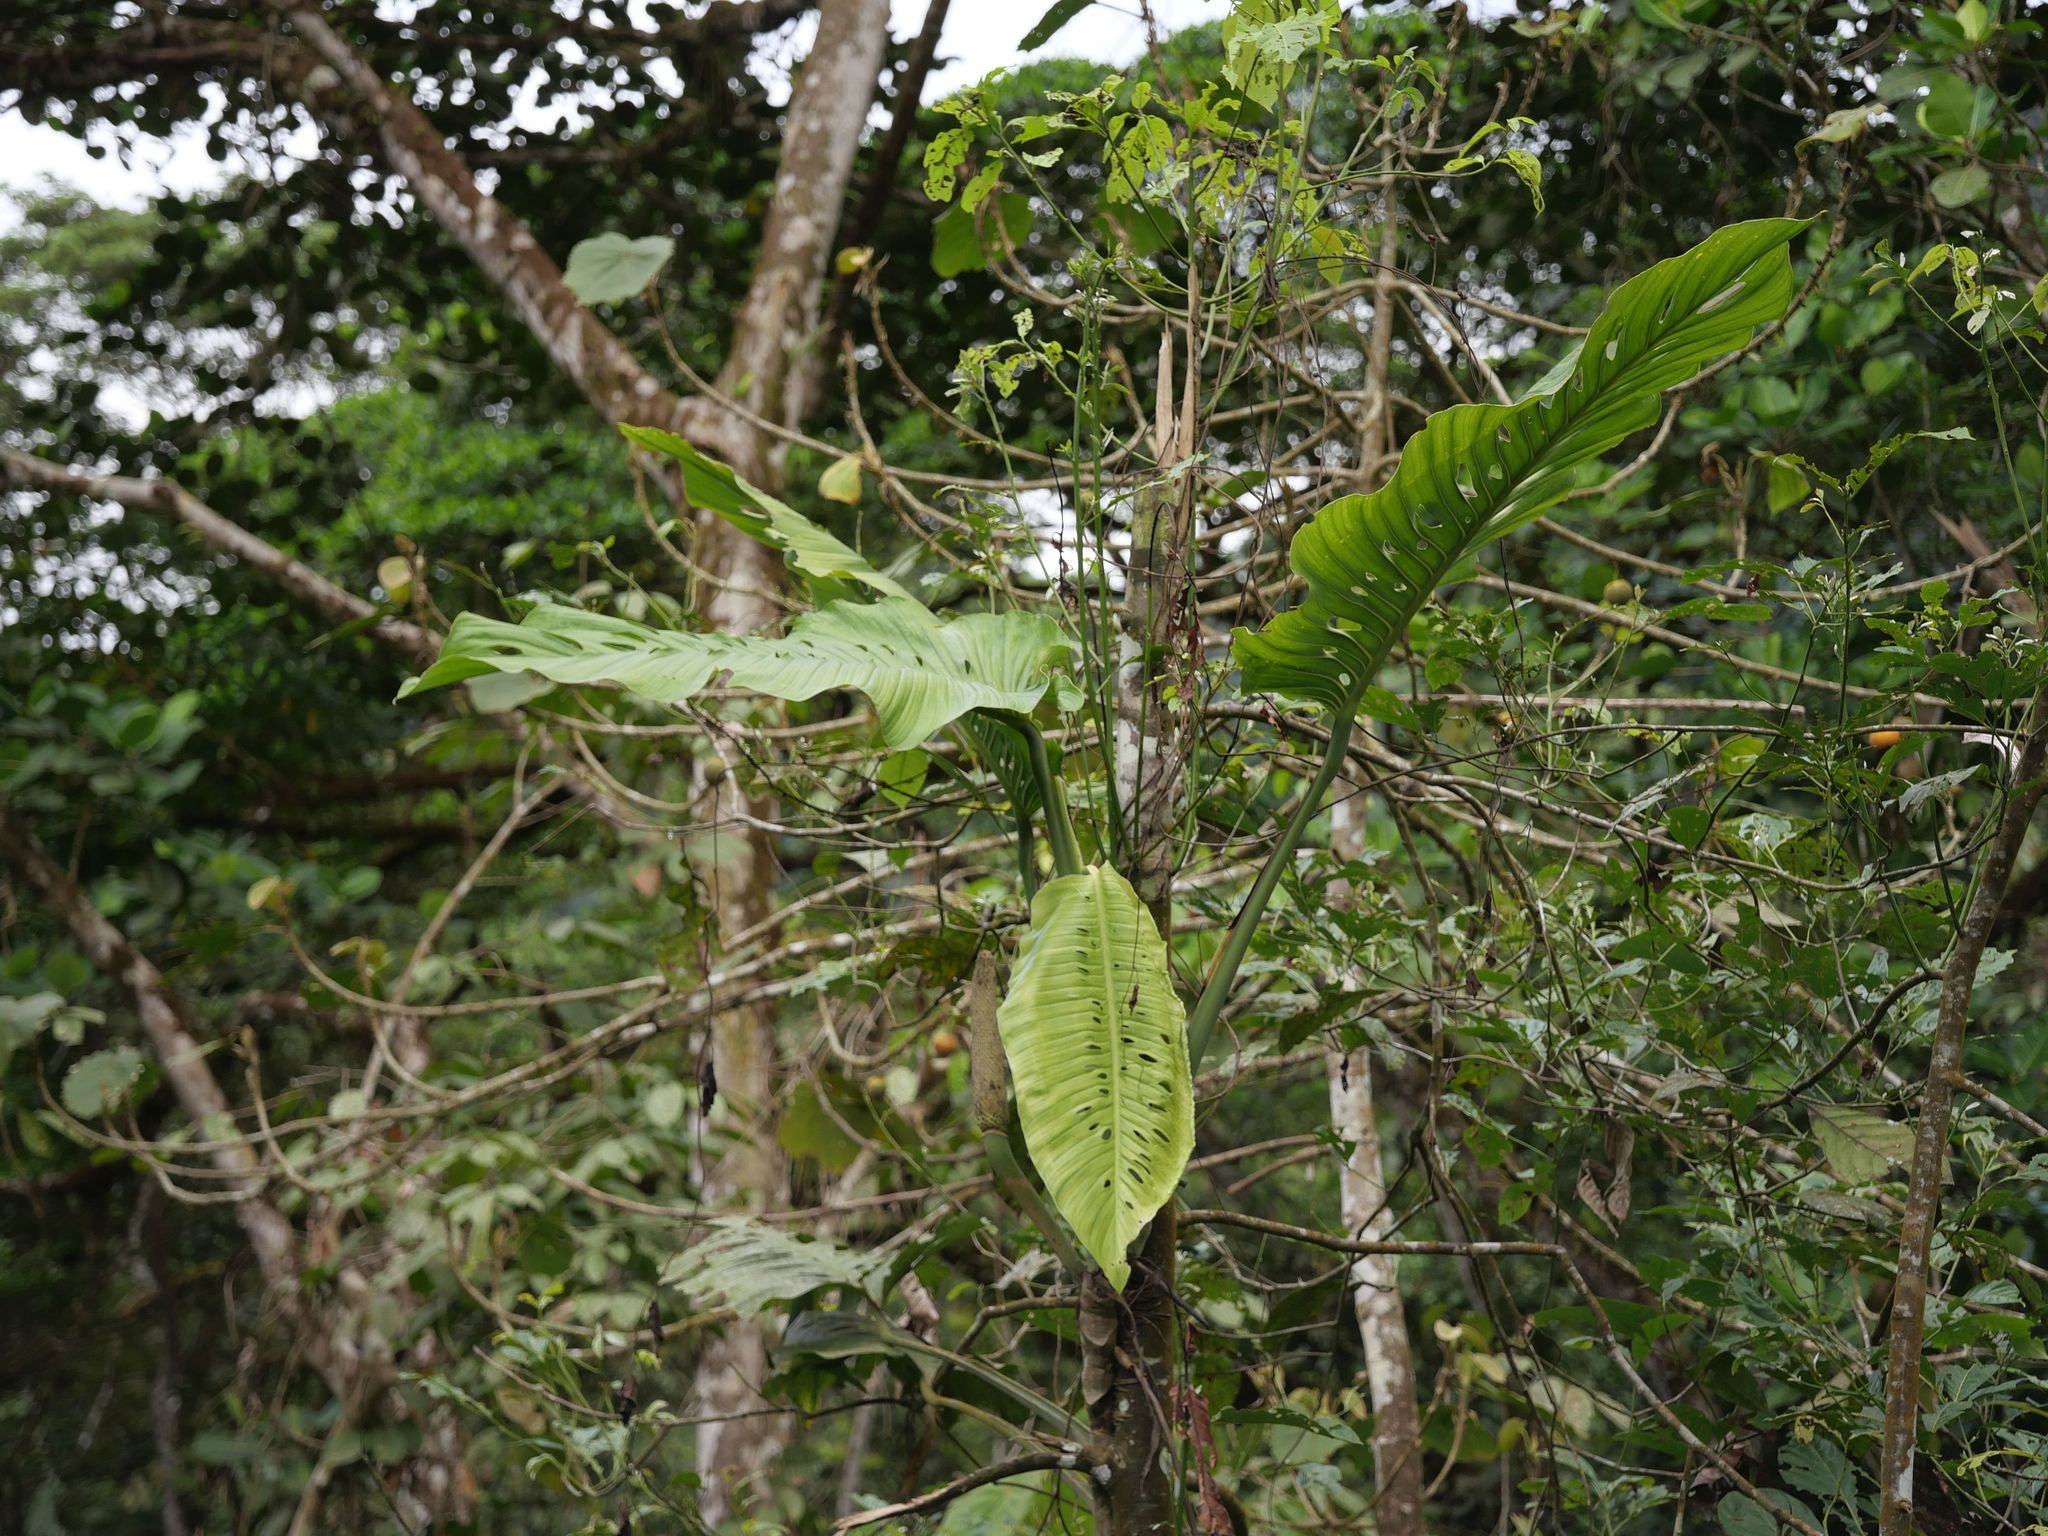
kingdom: Plantae
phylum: Tracheophyta
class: Liliopsida
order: Alismatales
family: Araceae
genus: Monstera
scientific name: Monstera lechleriana
